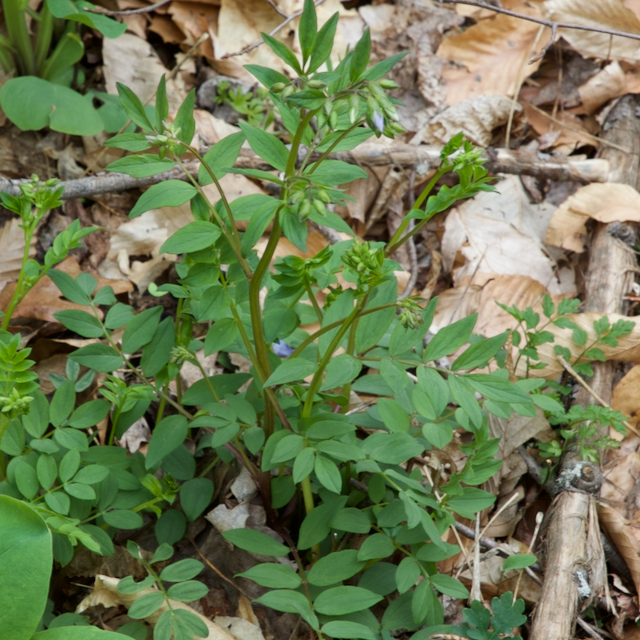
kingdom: Plantae
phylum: Tracheophyta
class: Magnoliopsida
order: Ericales
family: Polemoniaceae
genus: Polemonium
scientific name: Polemonium reptans
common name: Creeping jacob's-ladder
